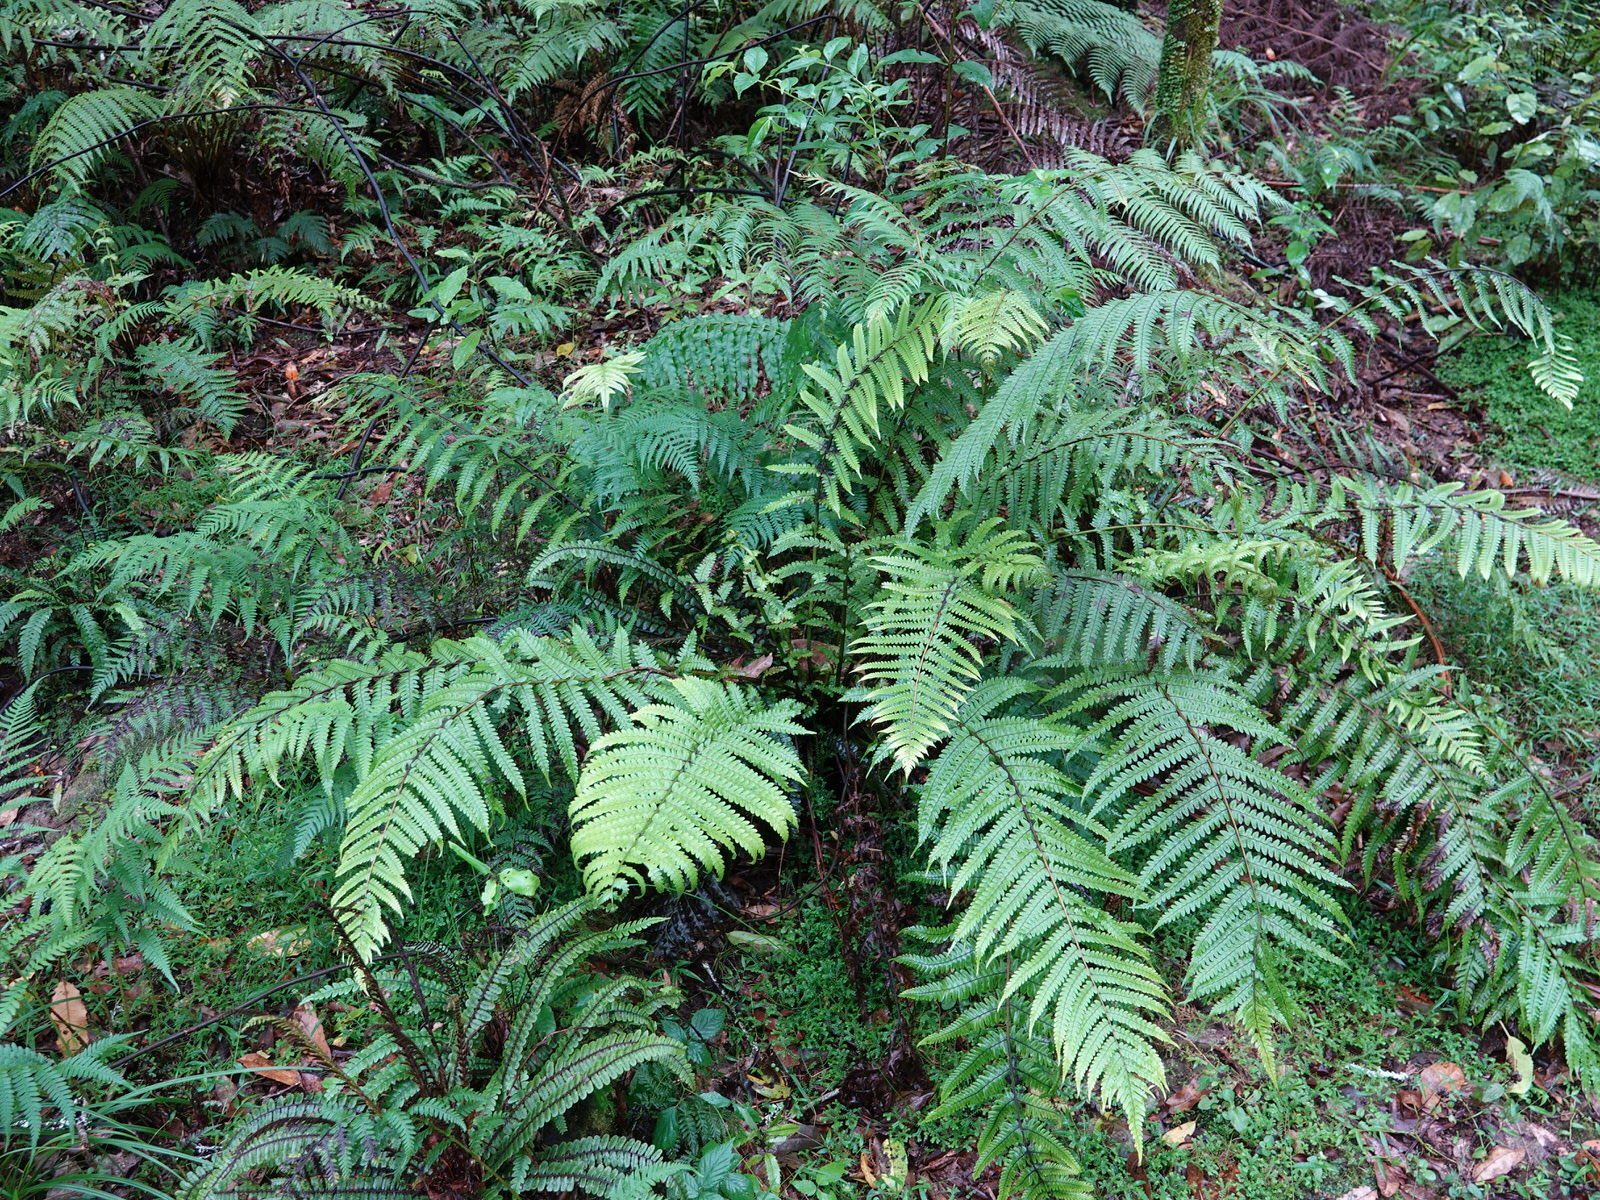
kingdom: Plantae
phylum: Tracheophyta
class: Polypodiopsida
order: Polypodiales
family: Thelypteridaceae
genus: Pakau
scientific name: Pakau pennigera
